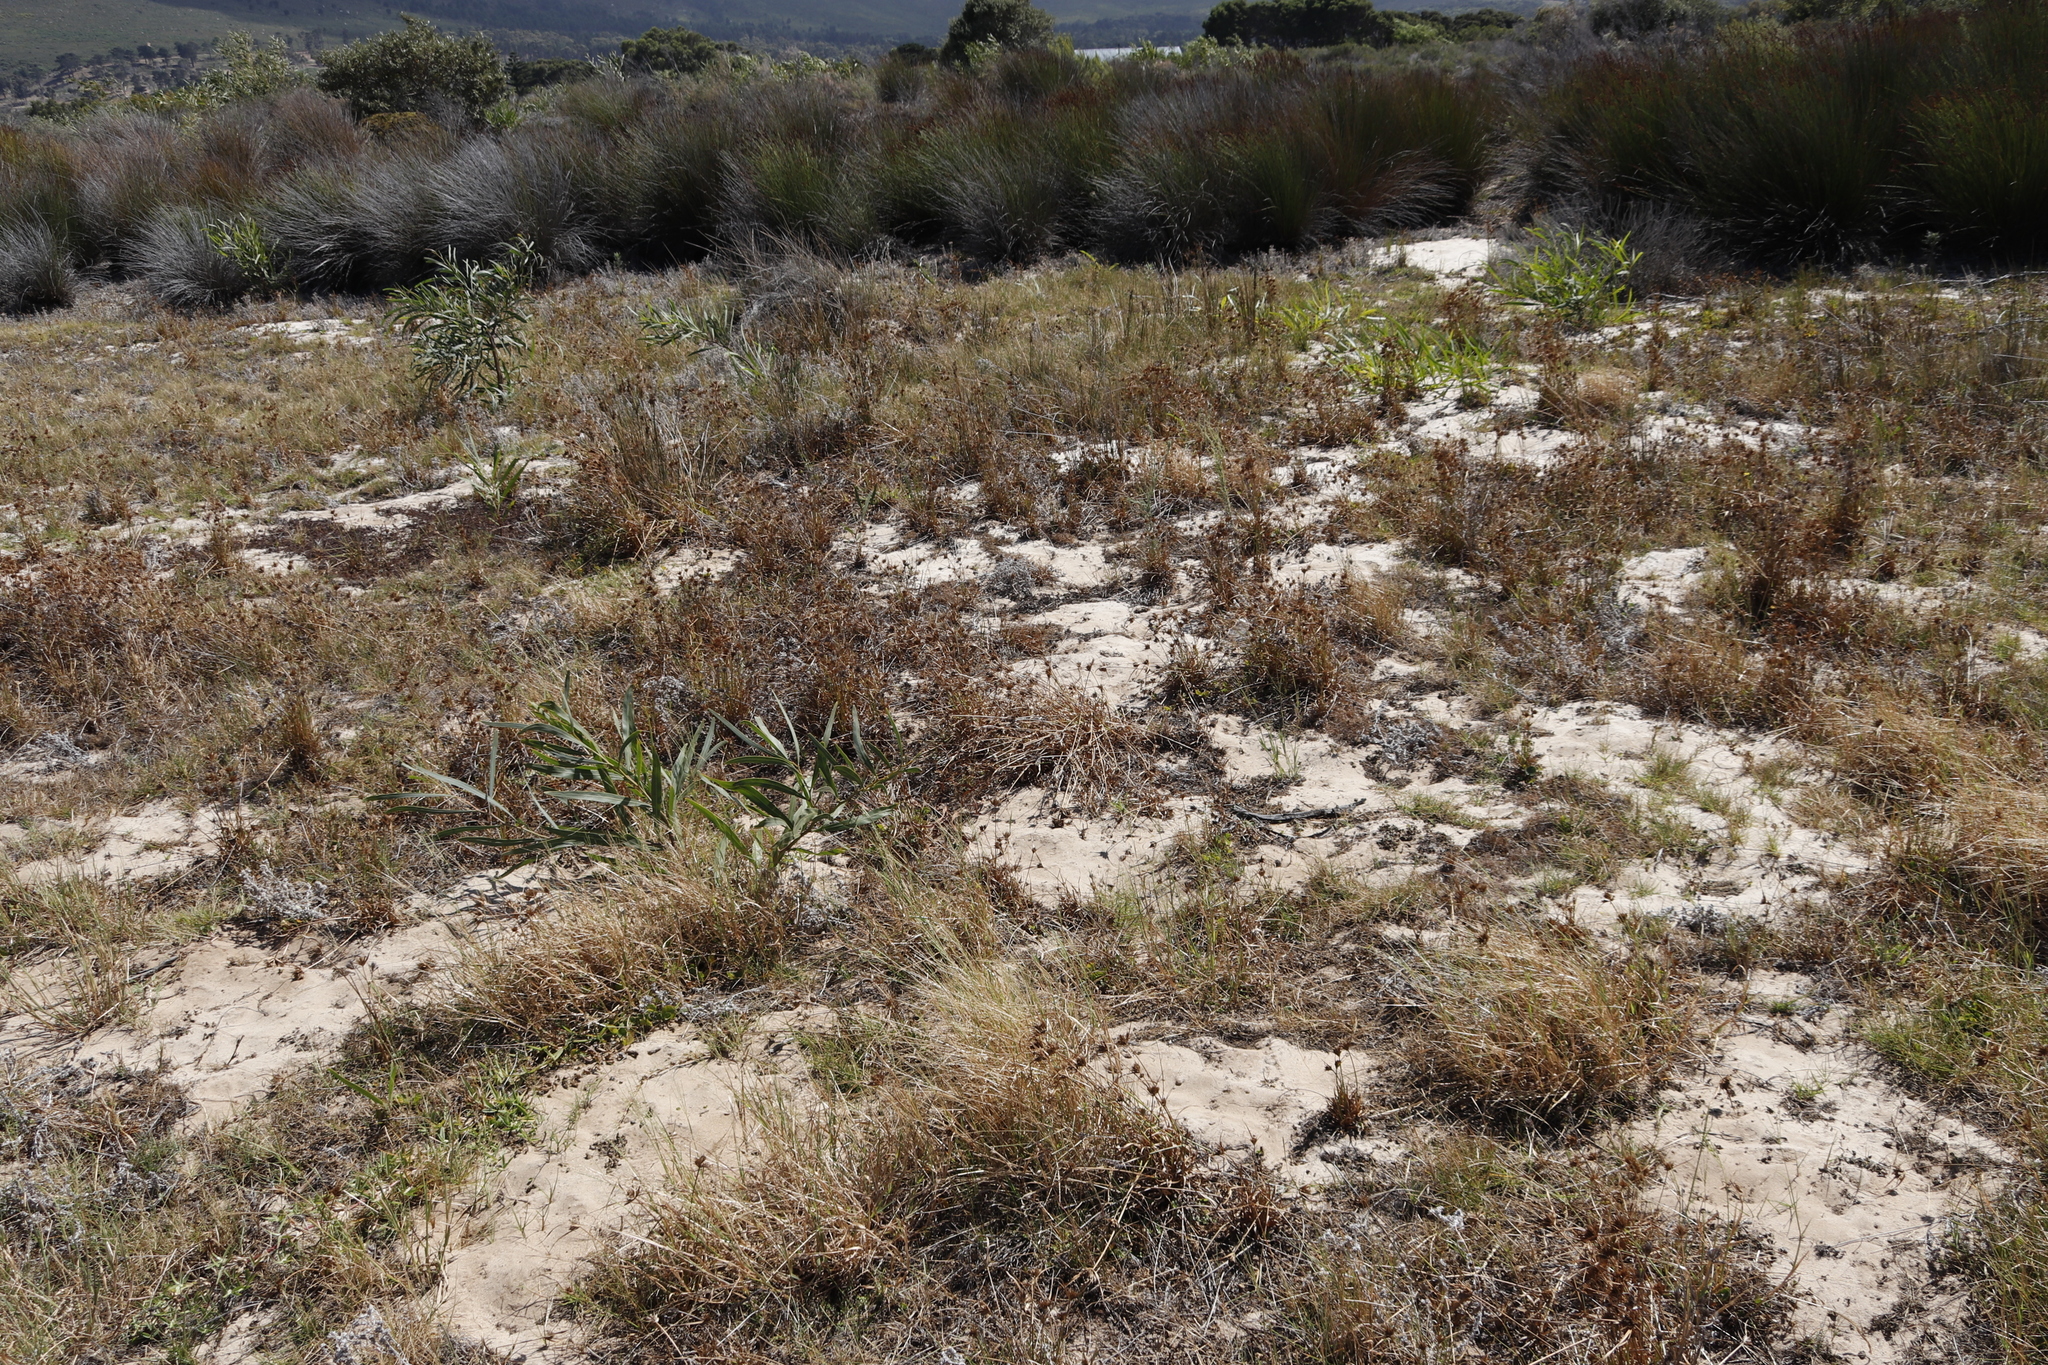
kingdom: Plantae
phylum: Tracheophyta
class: Liliopsida
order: Poales
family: Cyperaceae
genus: Cyperus
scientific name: Cyperus polystachyos
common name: Bunchy flat sedge
